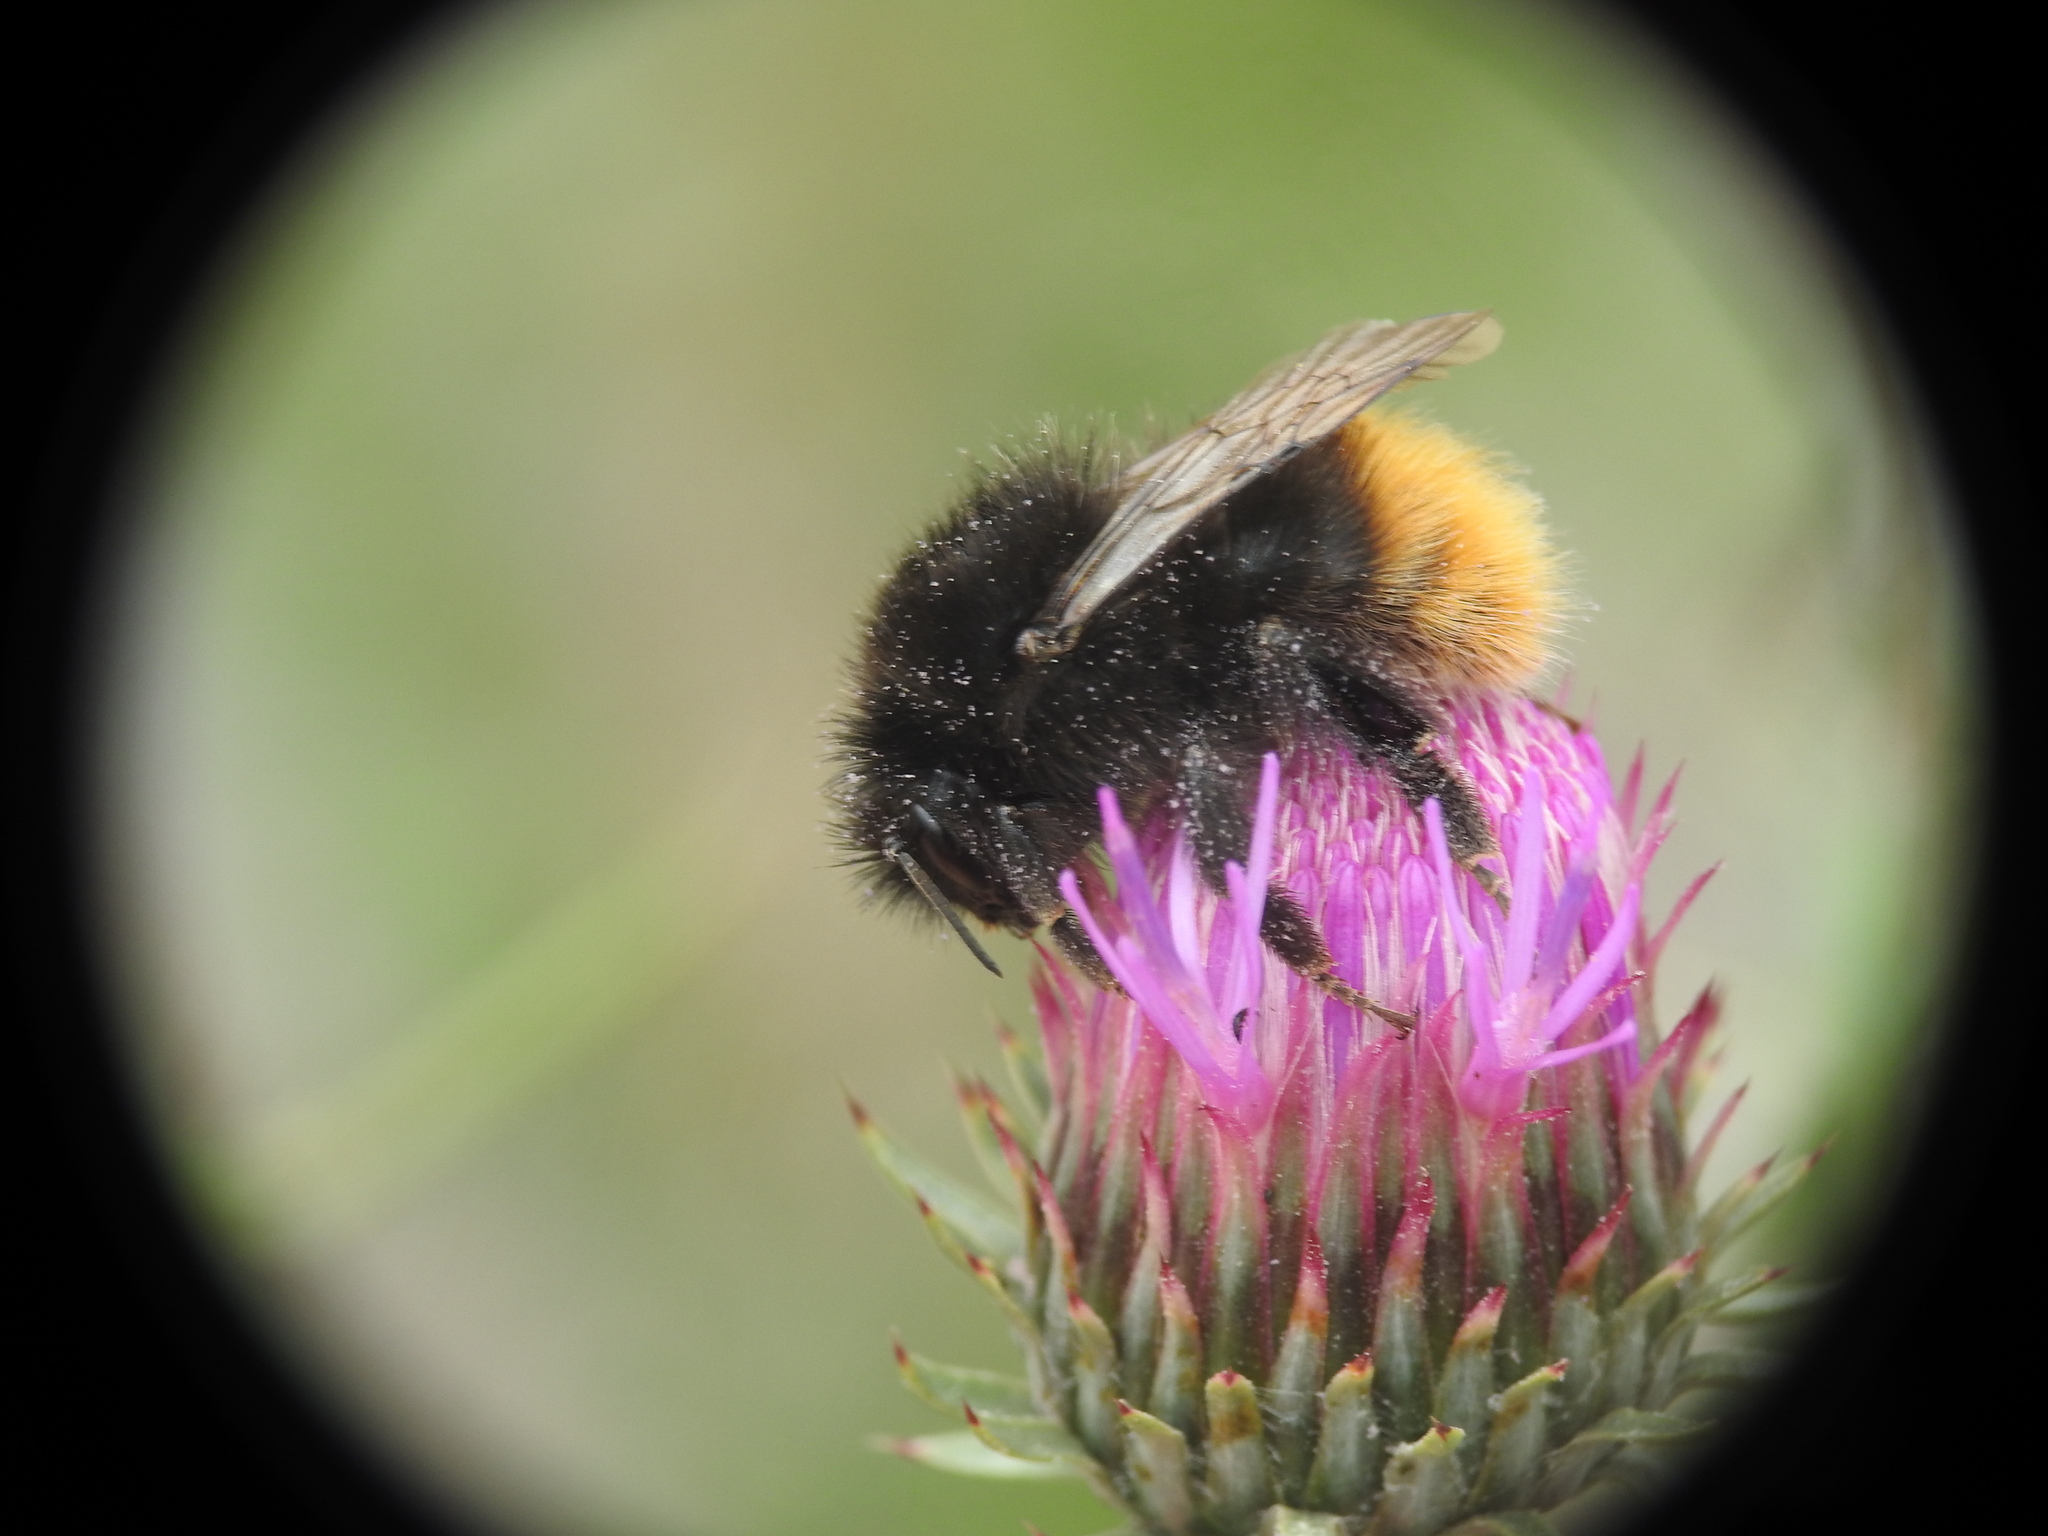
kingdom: Animalia
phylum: Arthropoda
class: Insecta
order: Hymenoptera
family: Apidae
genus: Bombus
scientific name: Bombus wurflenii
